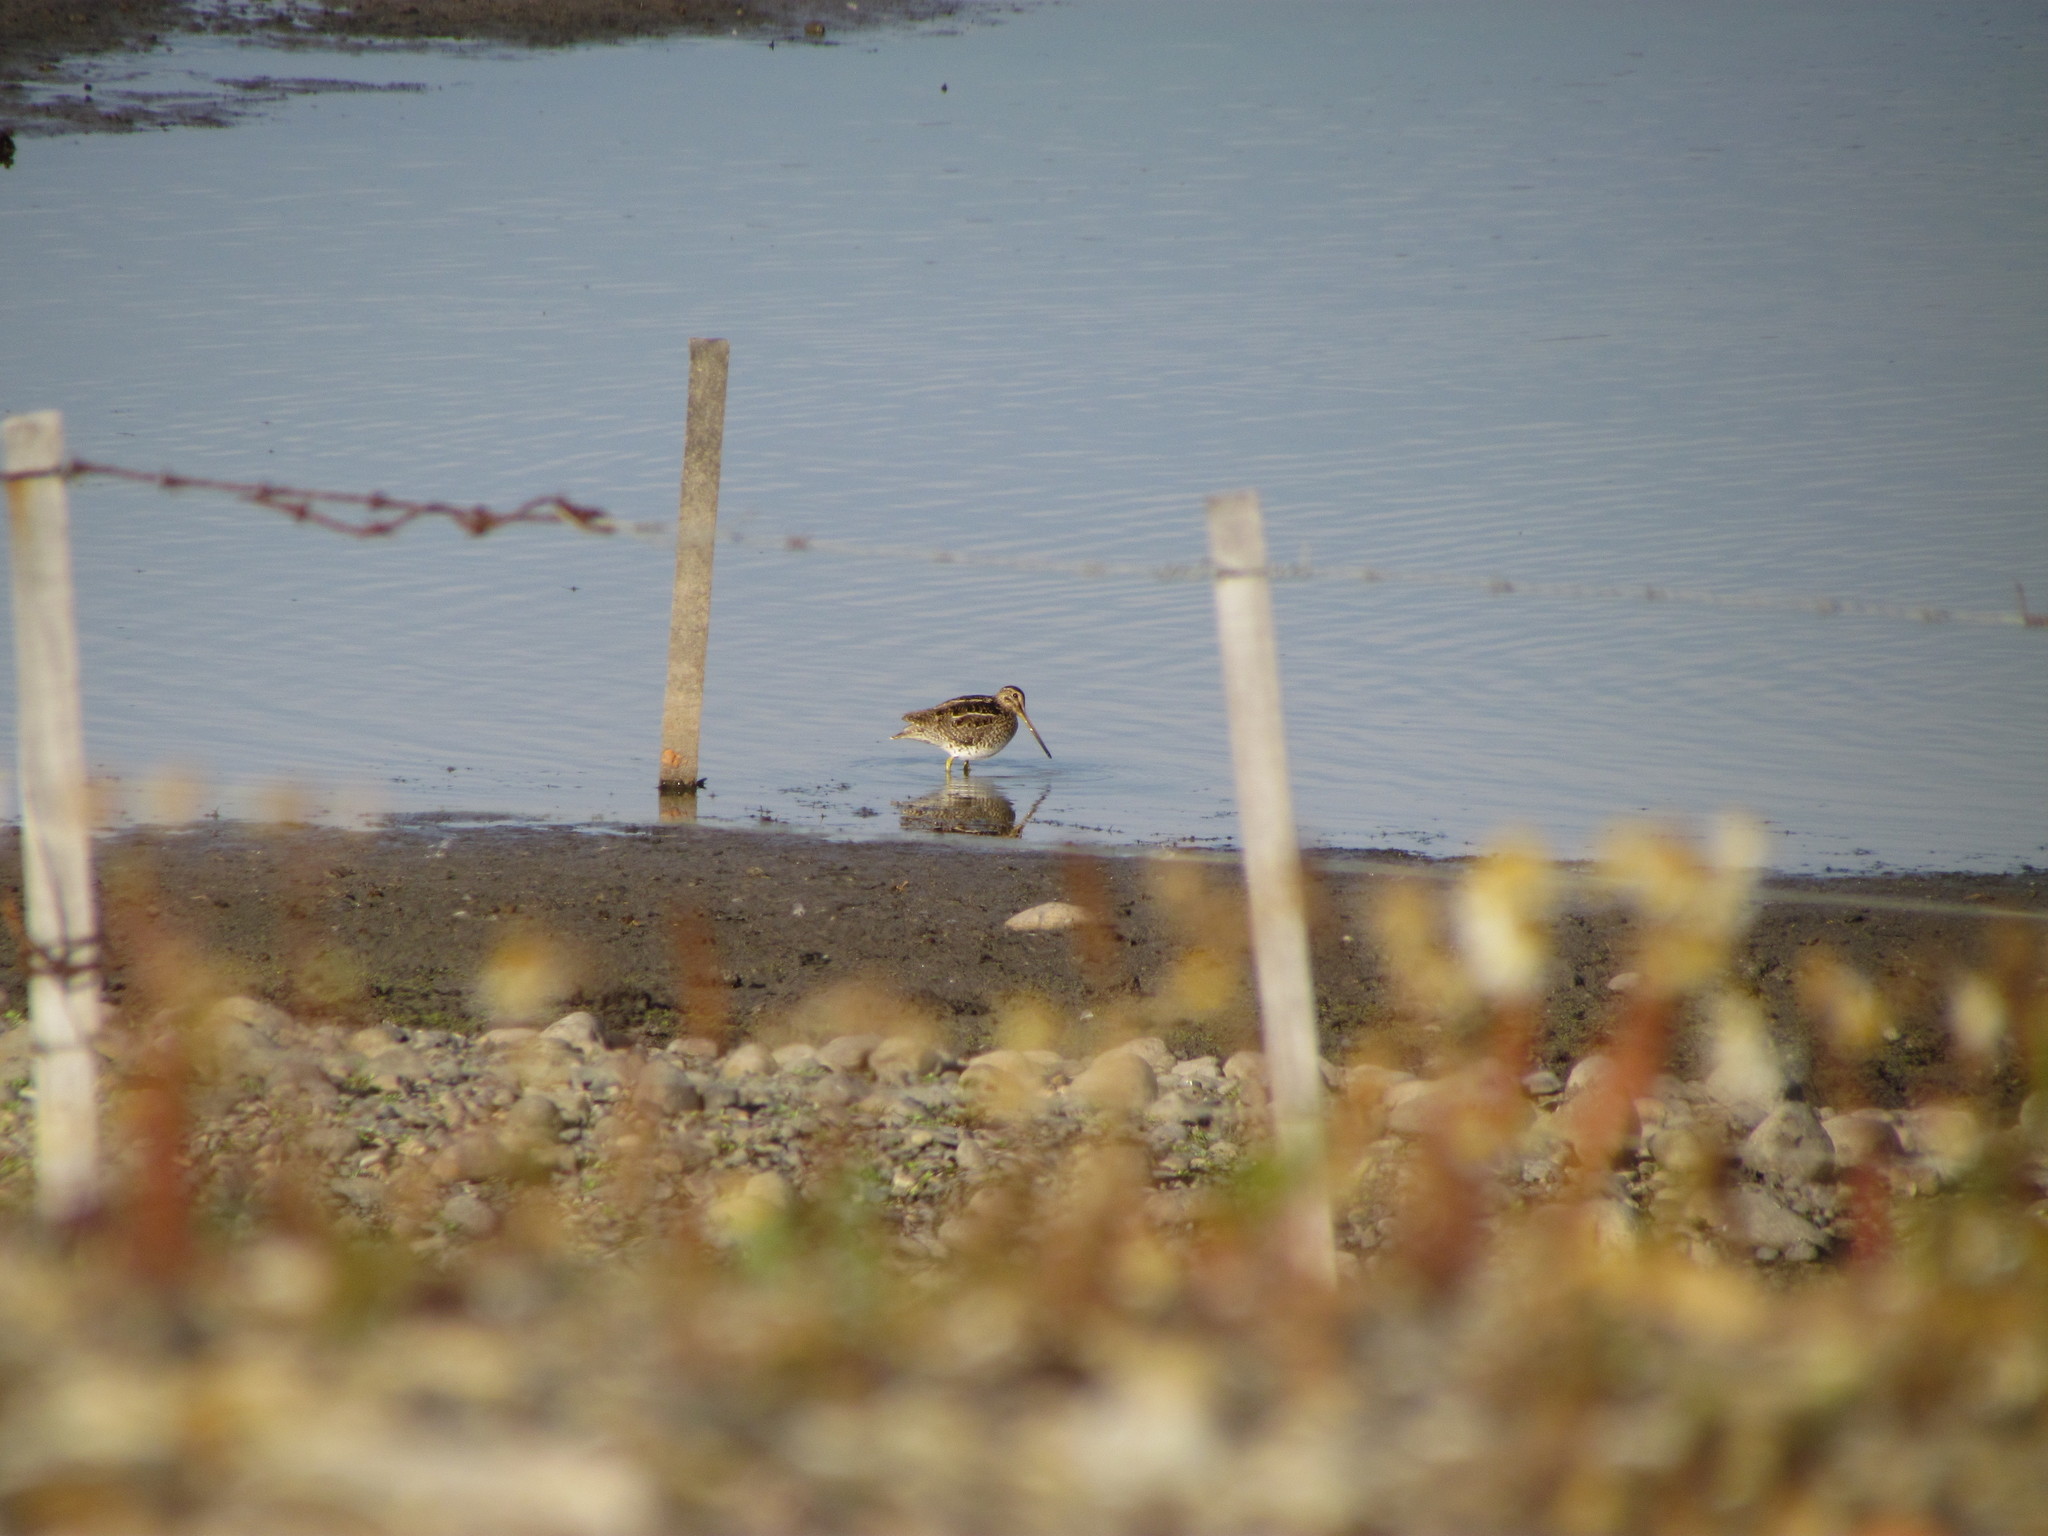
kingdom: Animalia
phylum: Chordata
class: Aves
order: Charadriiformes
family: Scolopacidae
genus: Gallinago
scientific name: Gallinago magellanica
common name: Magellanic snipe
